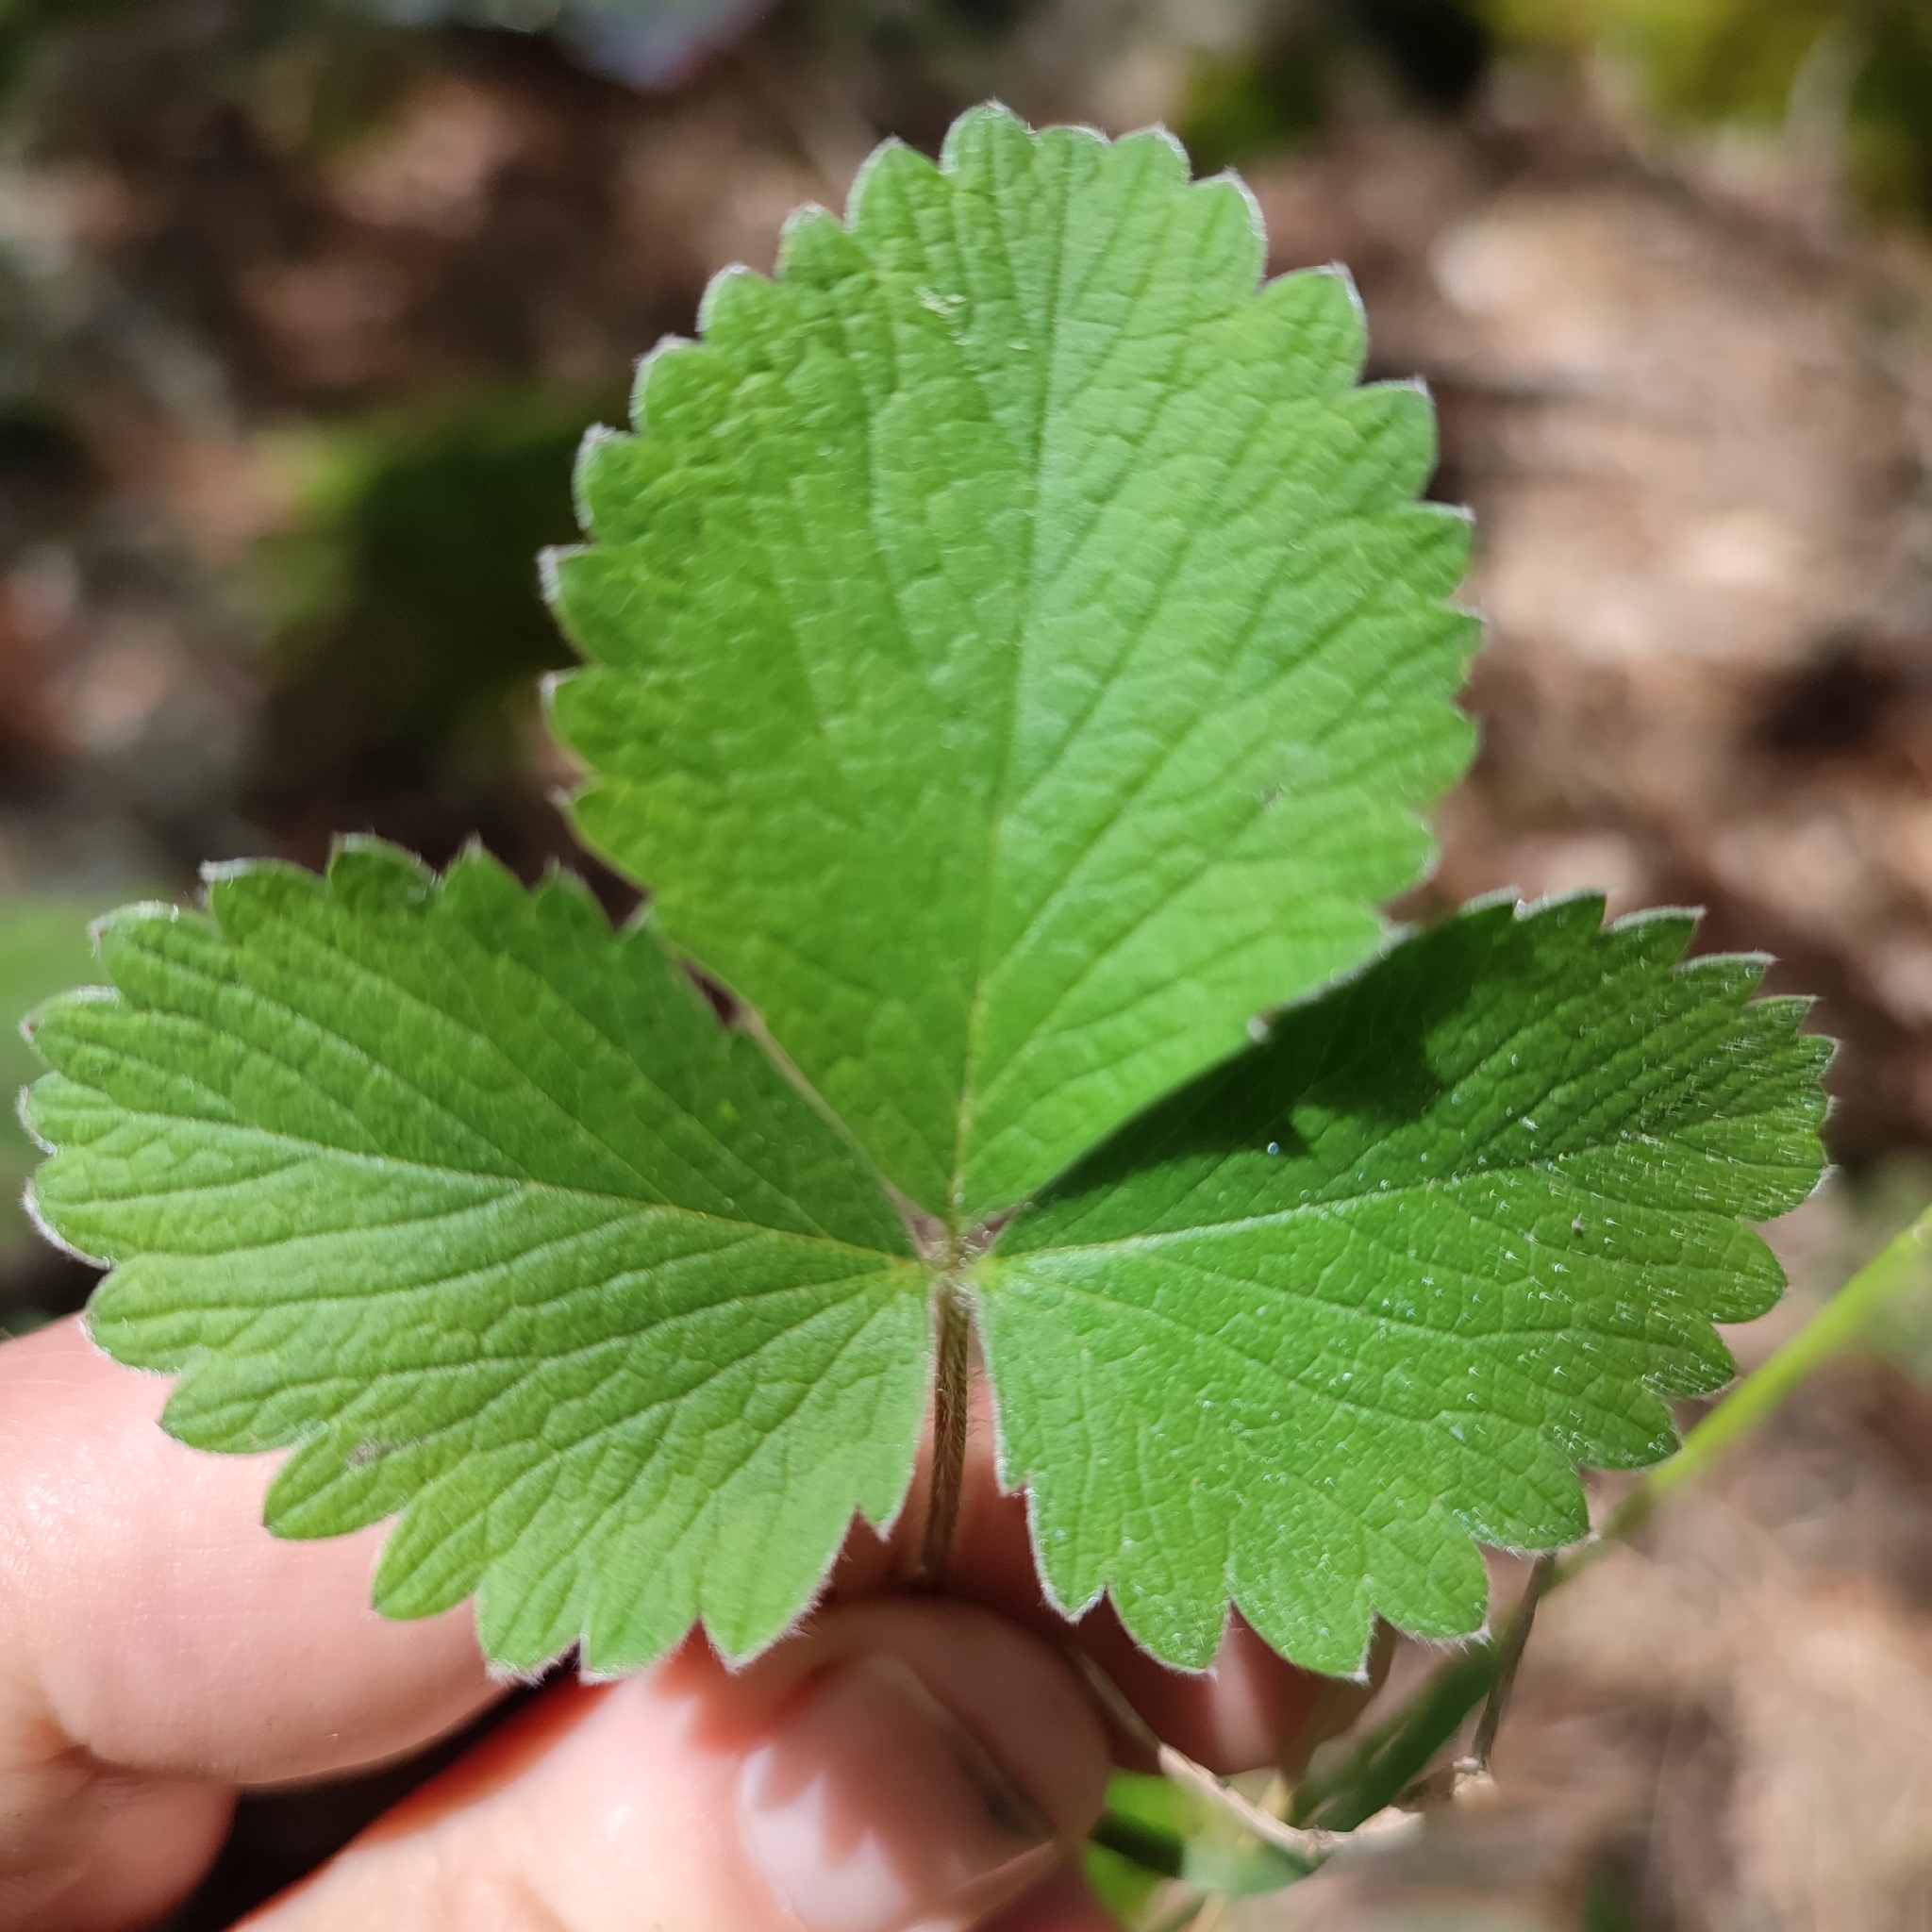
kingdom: Plantae
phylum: Tracheophyta
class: Magnoliopsida
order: Rosales
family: Rosaceae
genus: Potentilla
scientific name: Potentilla micrantha
